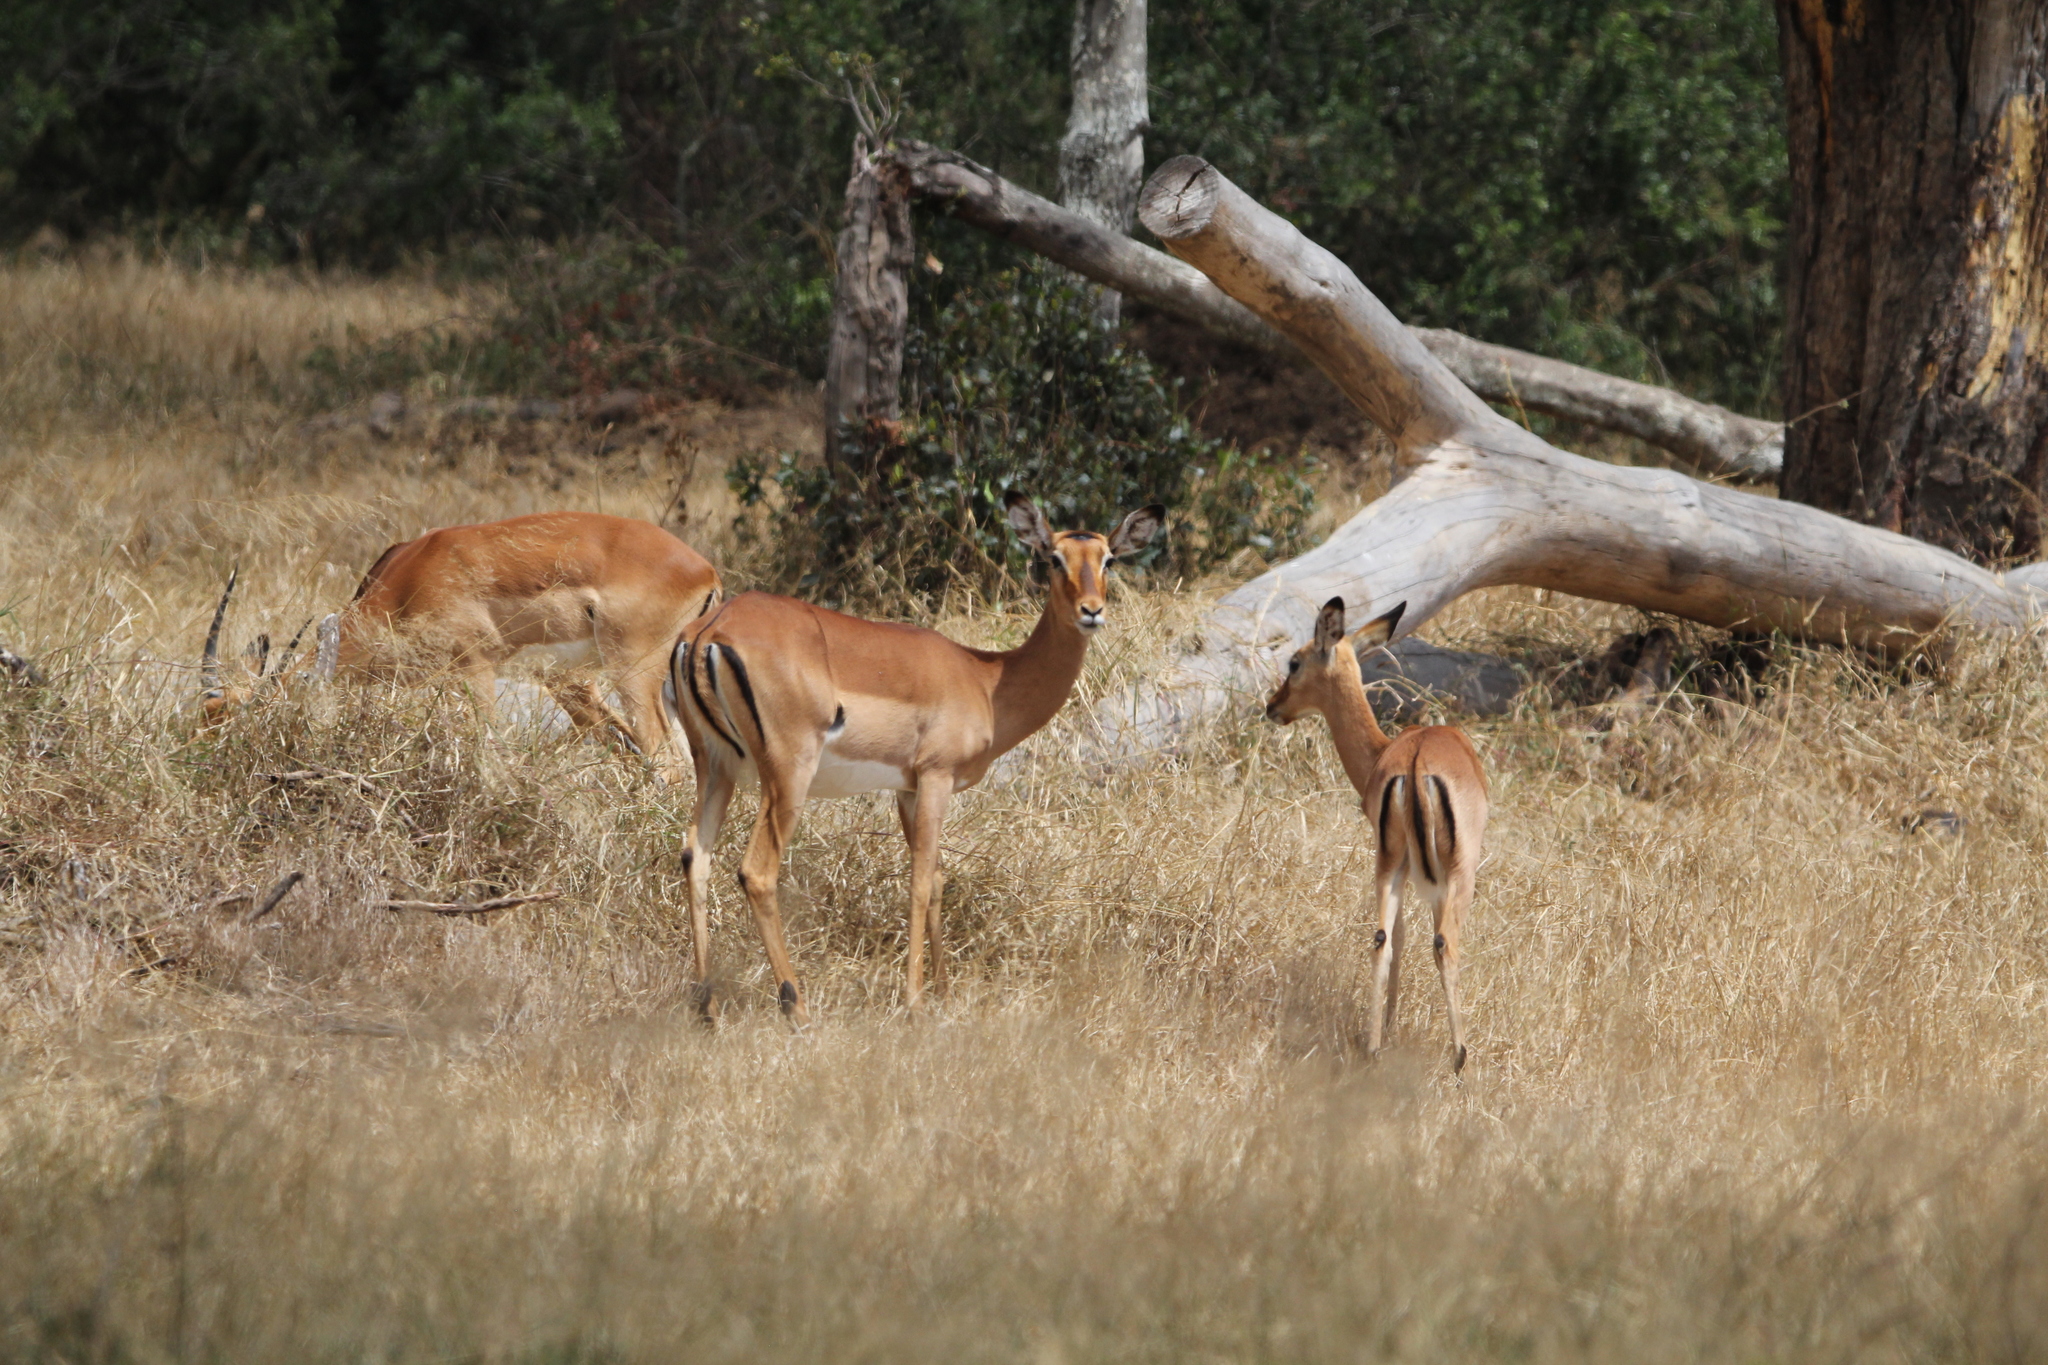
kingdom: Animalia
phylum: Chordata
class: Mammalia
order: Artiodactyla
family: Bovidae
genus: Aepyceros
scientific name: Aepyceros melampus
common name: Impala
